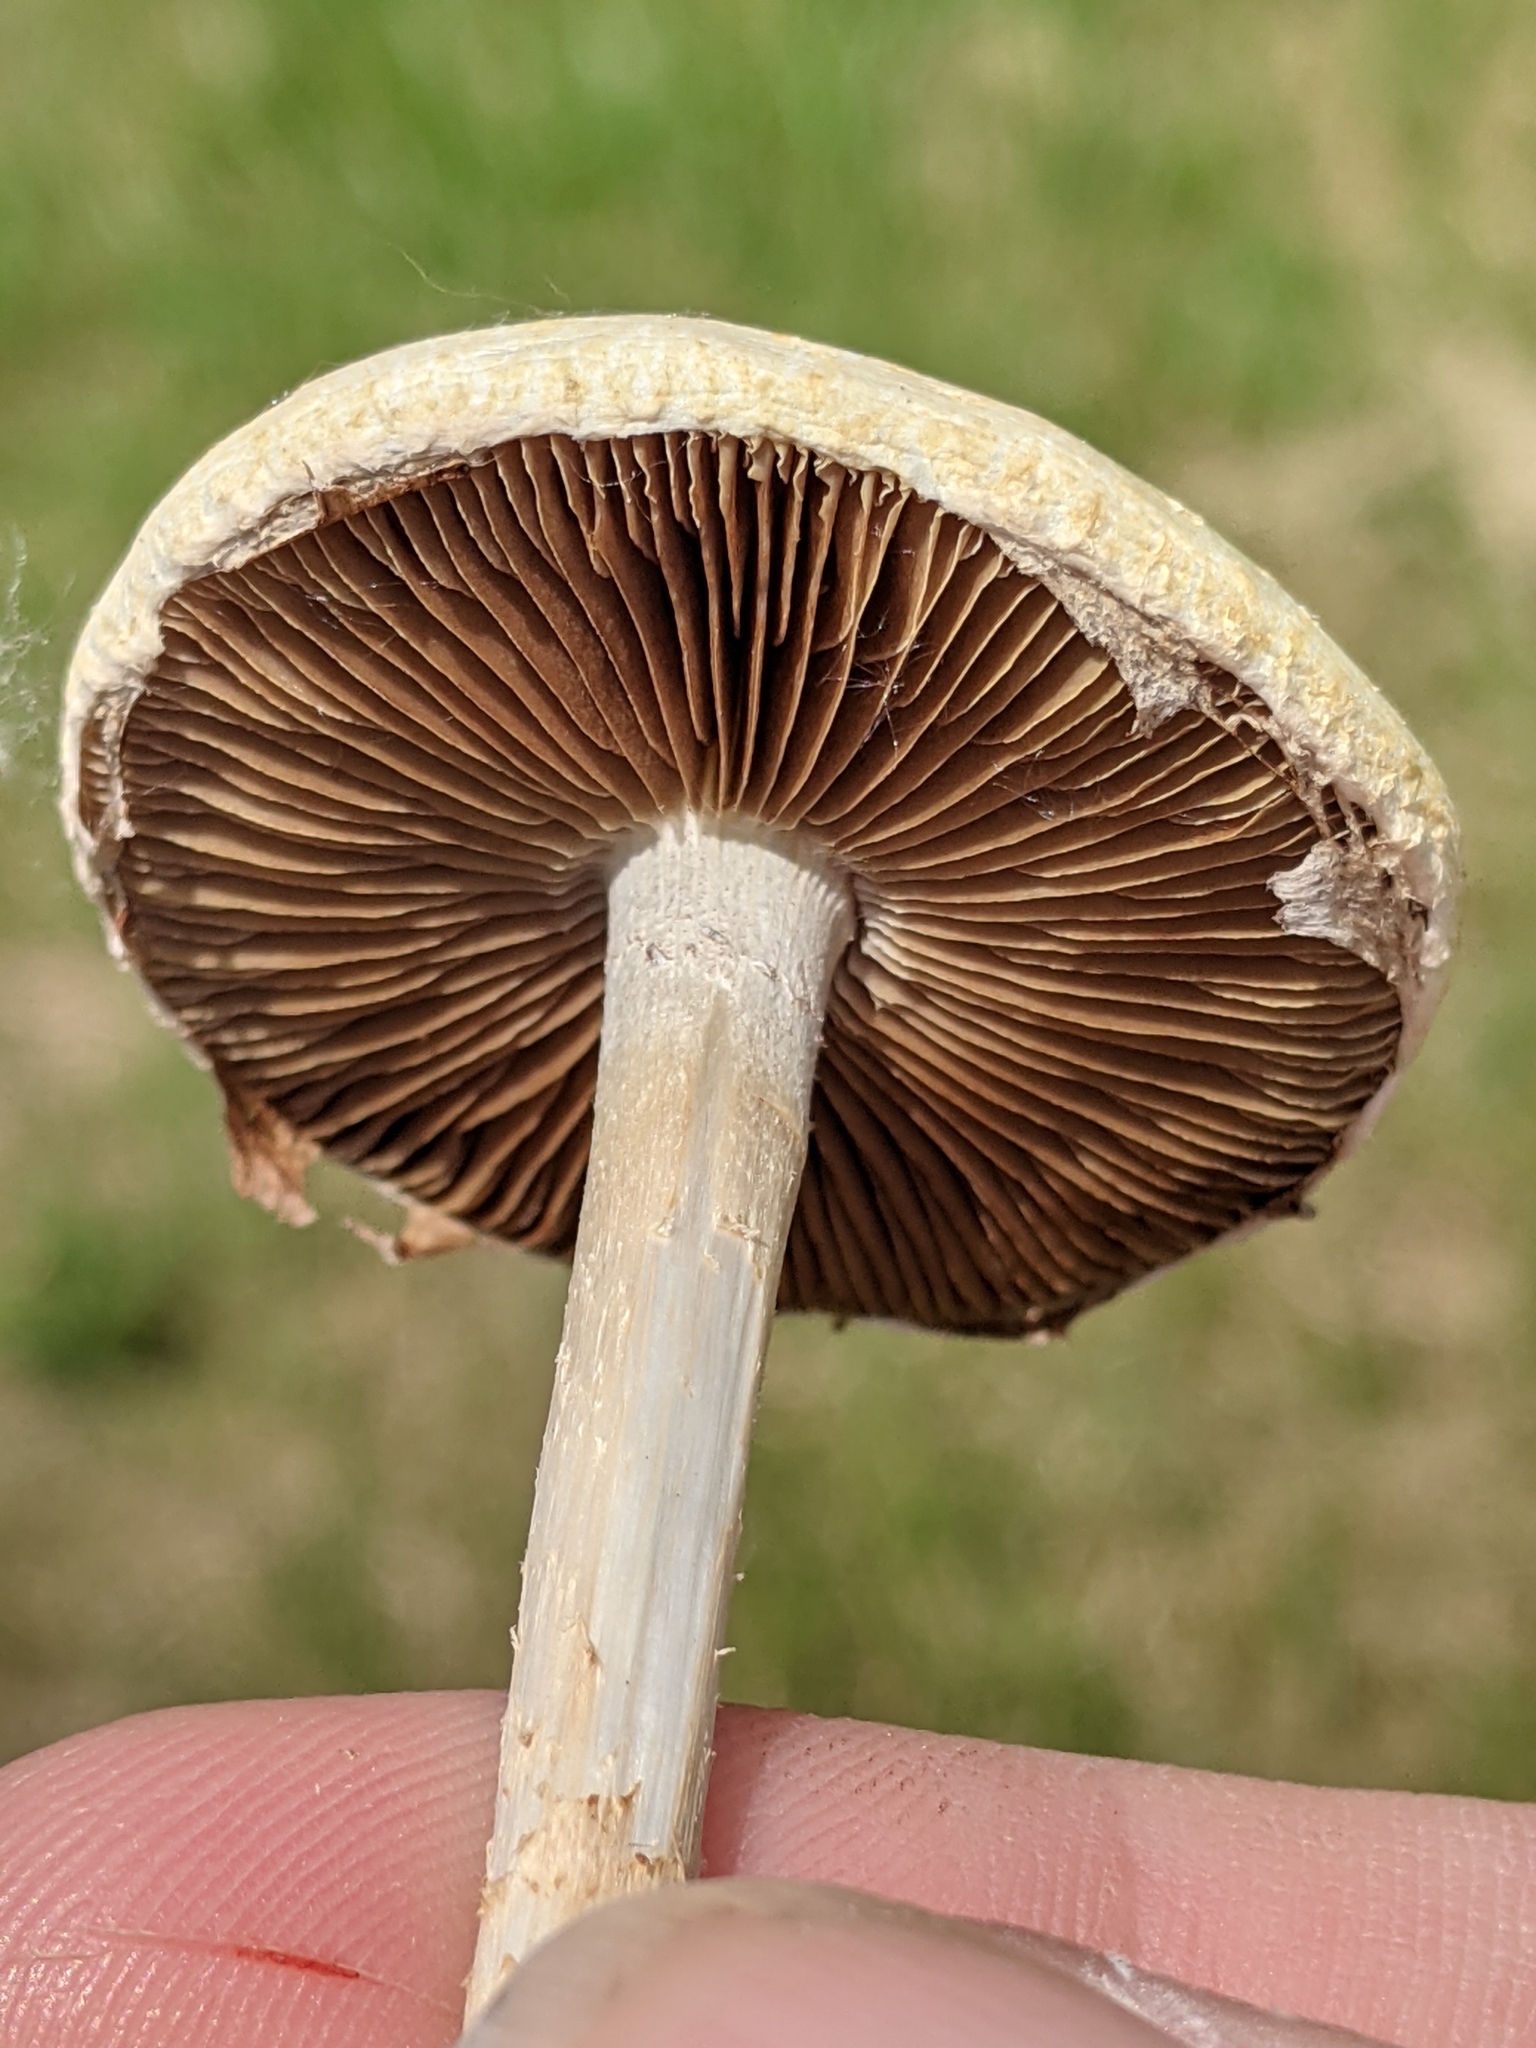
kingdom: Fungi
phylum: Basidiomycota
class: Agaricomycetes
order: Agaricales
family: Strophariaceae
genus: Agrocybe
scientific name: Agrocybe pediades
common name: Common fieldcap
